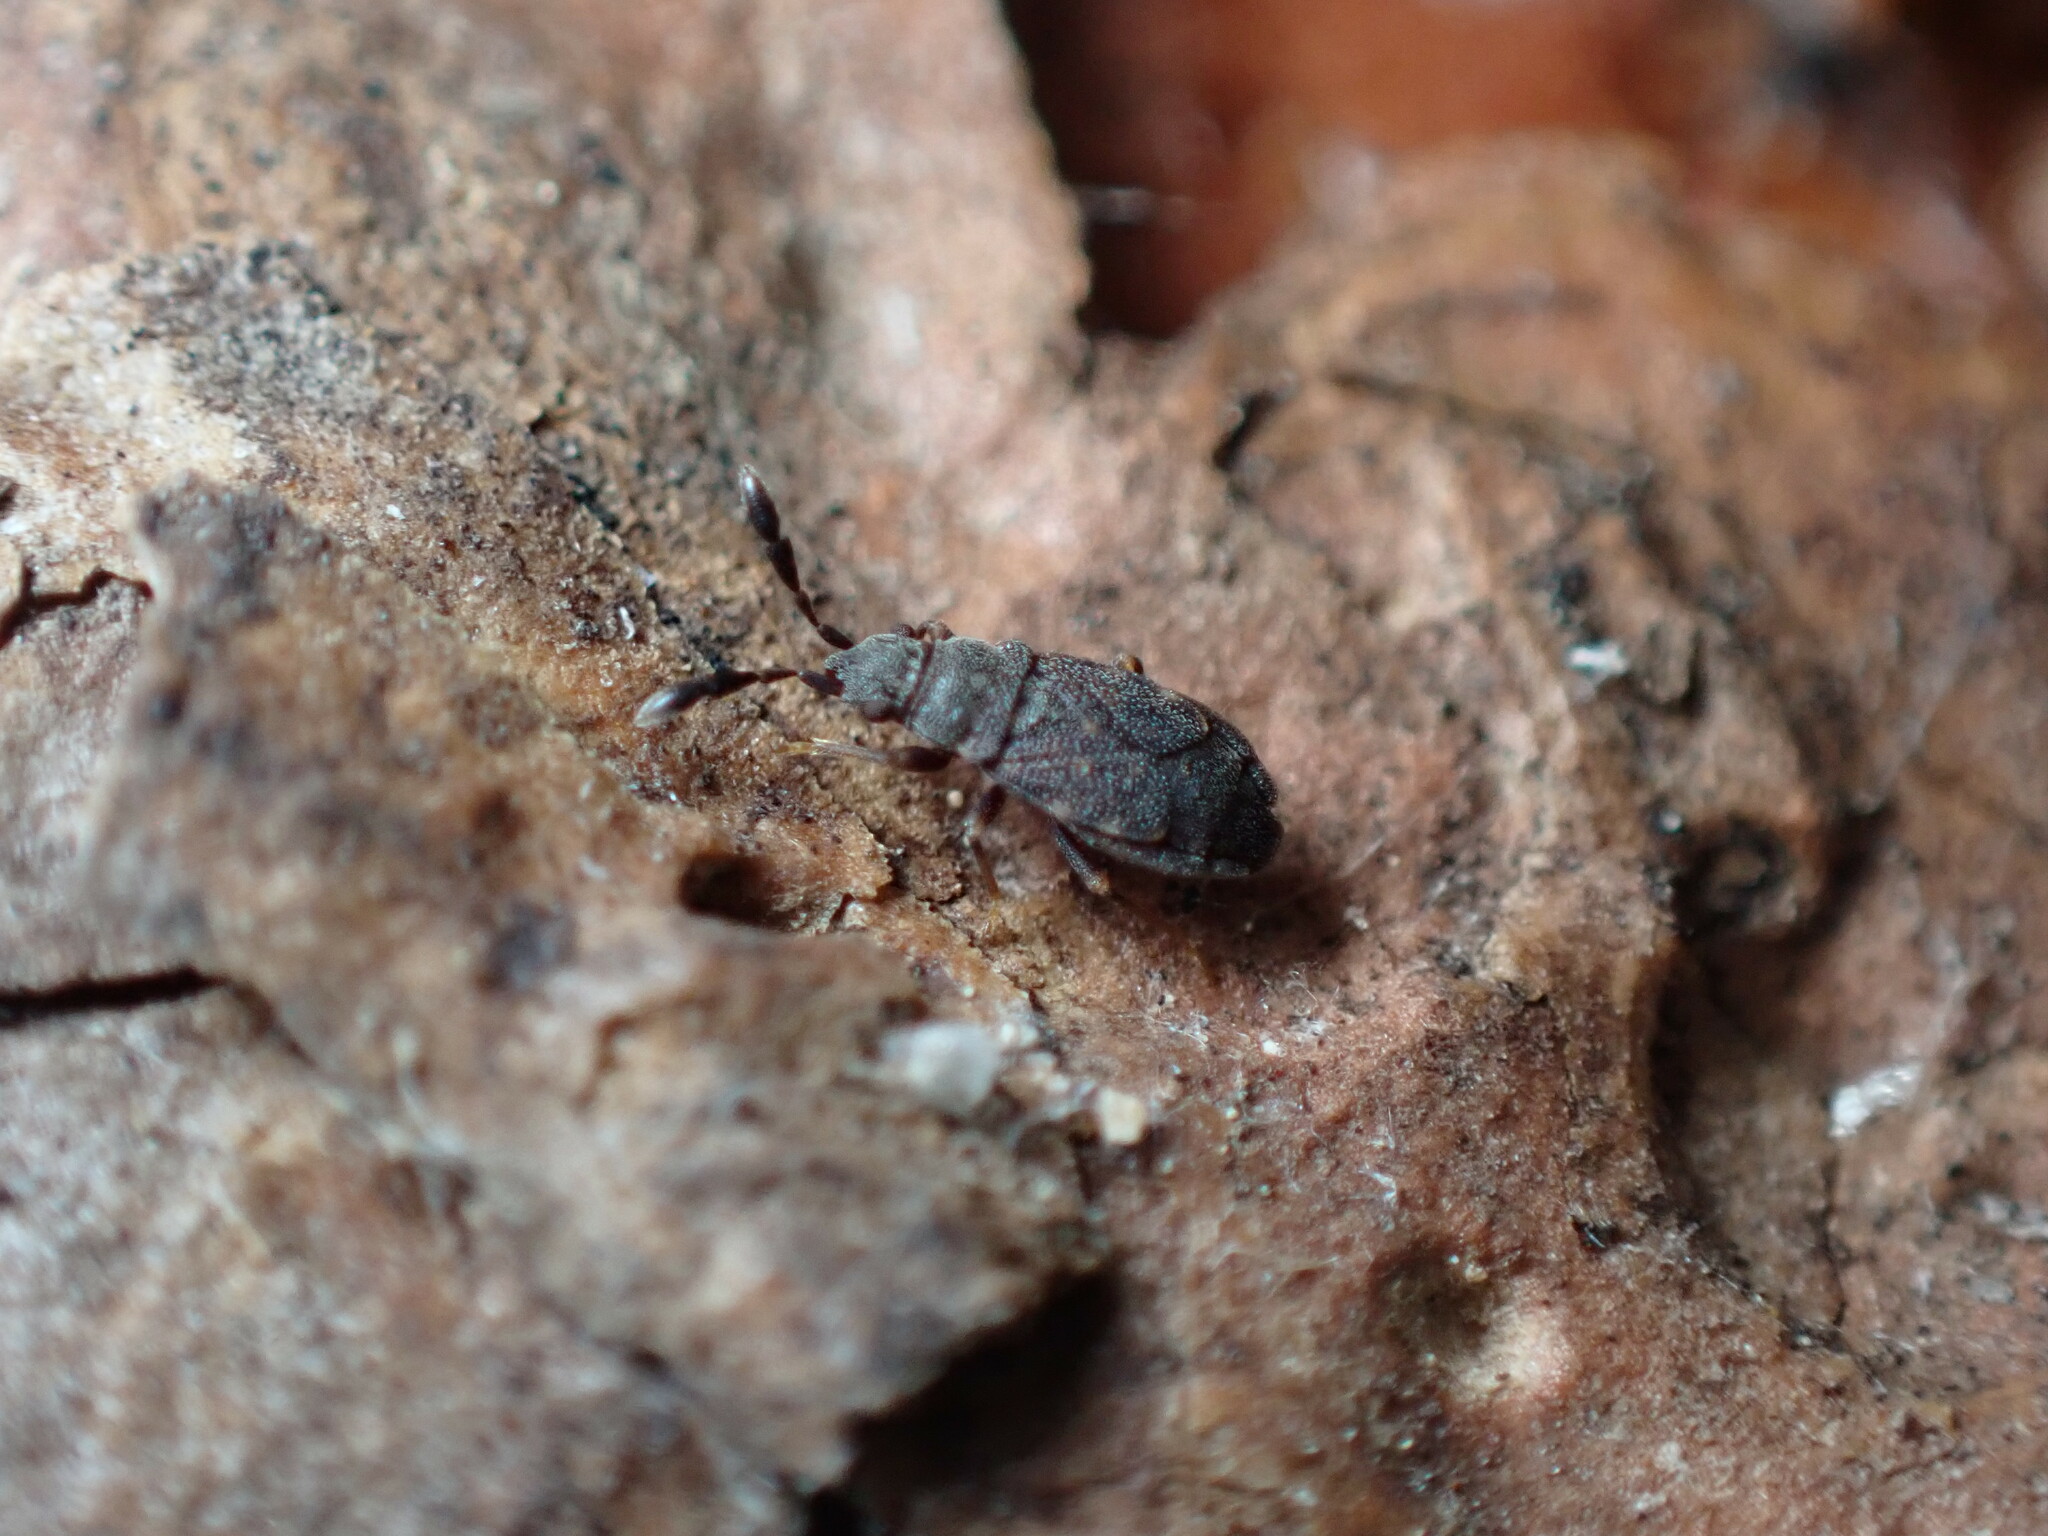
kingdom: Animalia
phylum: Arthropoda
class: Insecta
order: Hemiptera
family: Rhyparochromidae
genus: Sisamnes
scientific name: Sisamnes claviger
